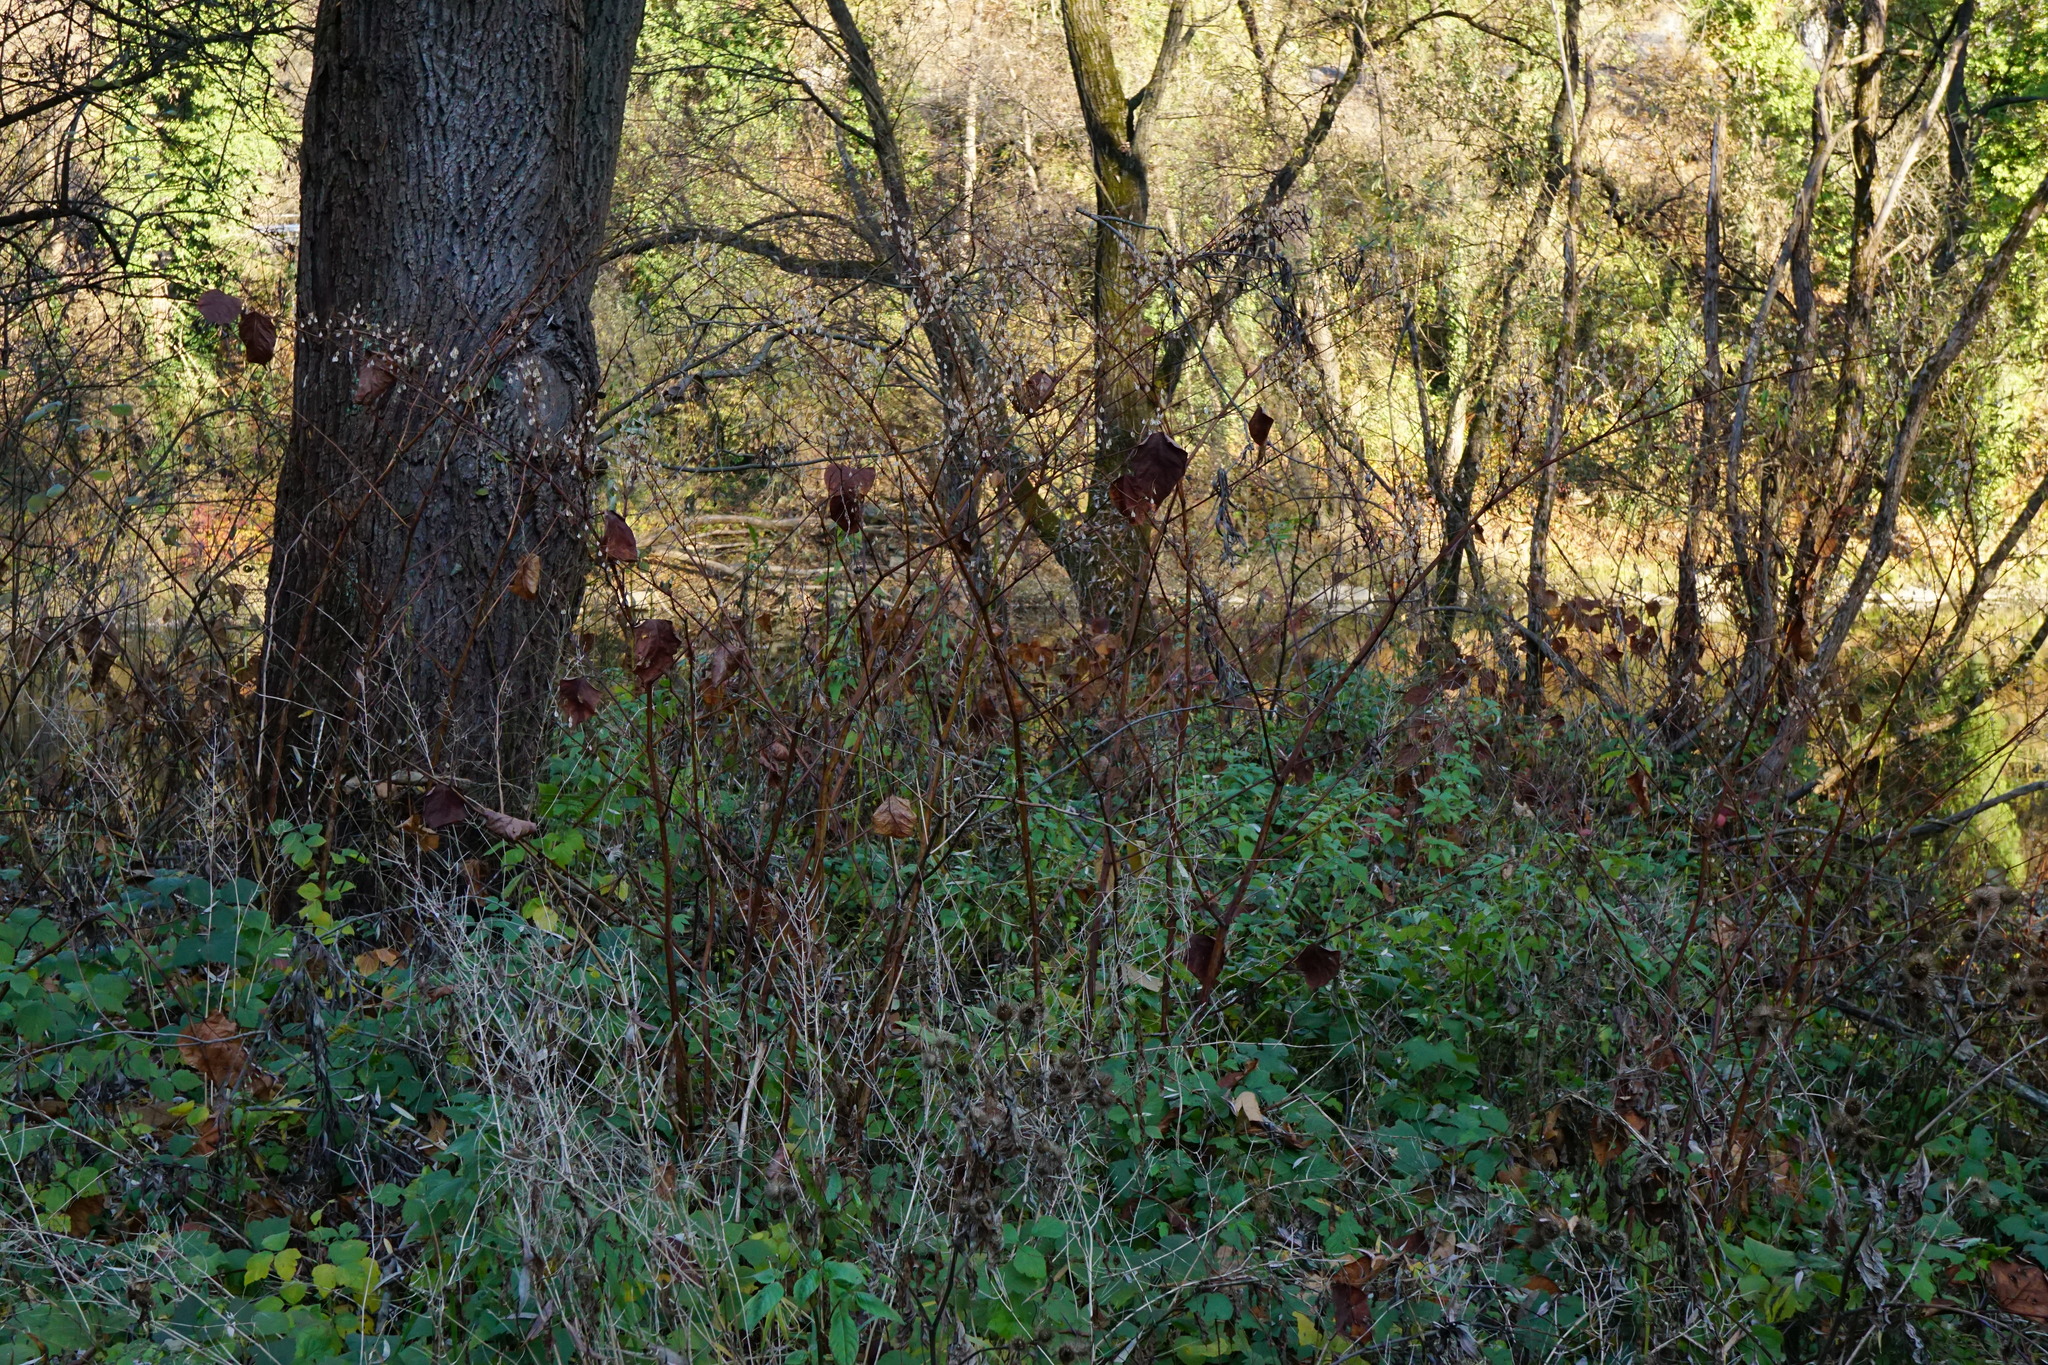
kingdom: Plantae
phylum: Tracheophyta
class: Magnoliopsida
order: Caryophyllales
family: Polygonaceae
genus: Reynoutria
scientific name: Reynoutria japonica
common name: Japanese knotweed
